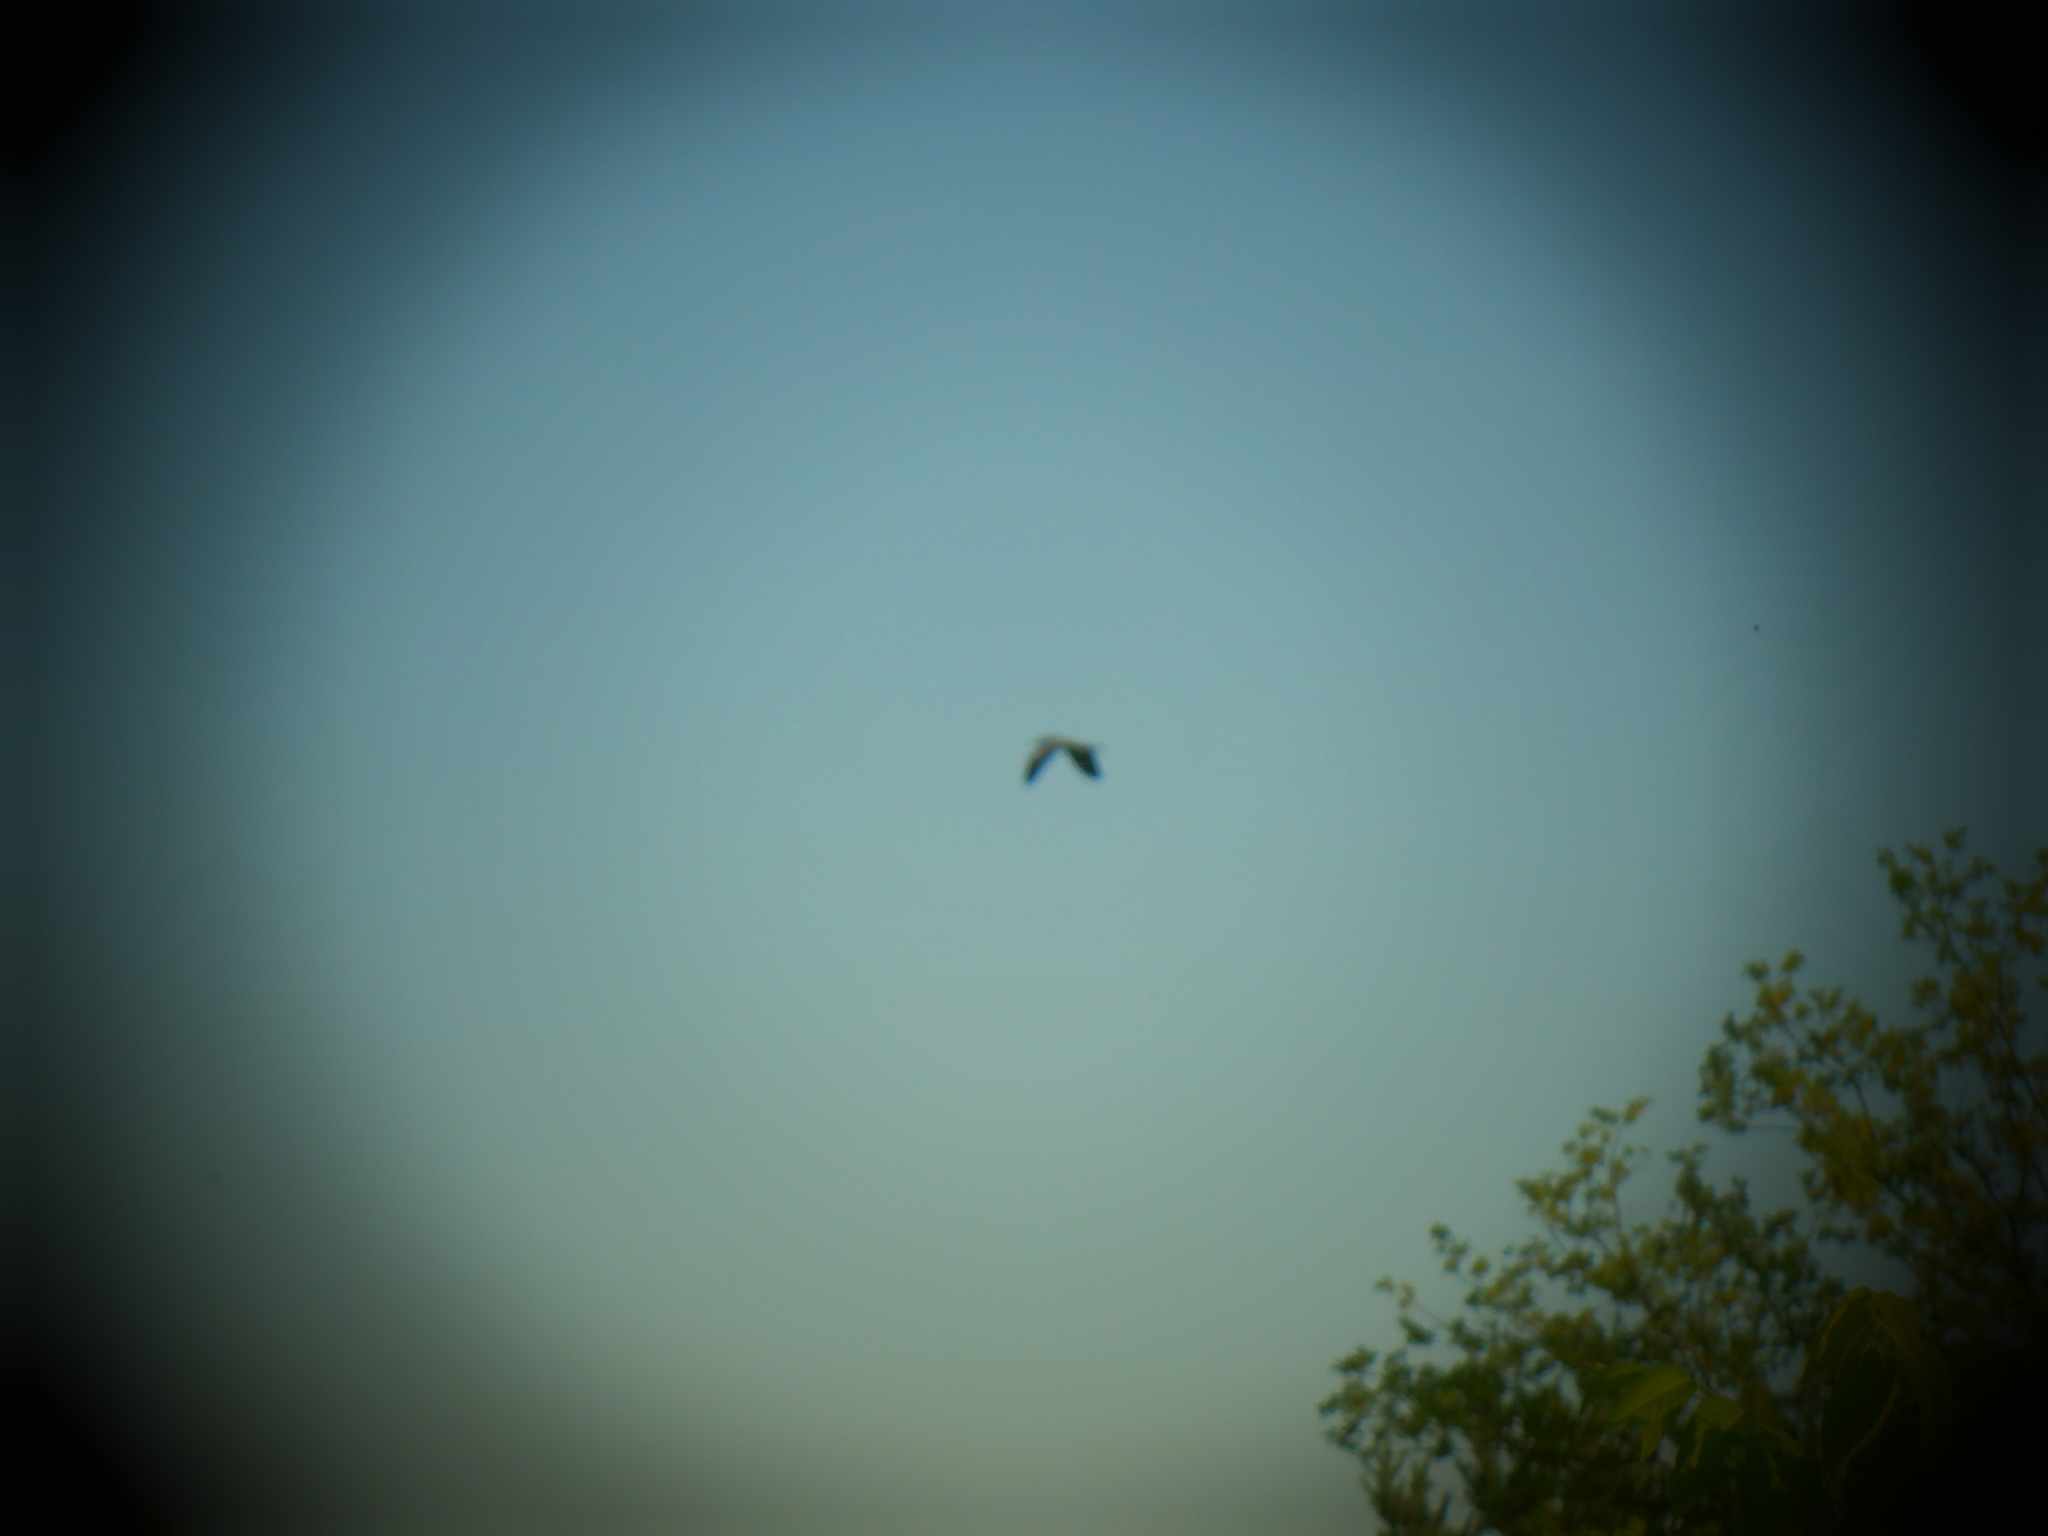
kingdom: Animalia
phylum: Chordata
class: Aves
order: Pelecaniformes
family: Ardeidae
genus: Ardea
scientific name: Ardea herodias
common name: Great blue heron
